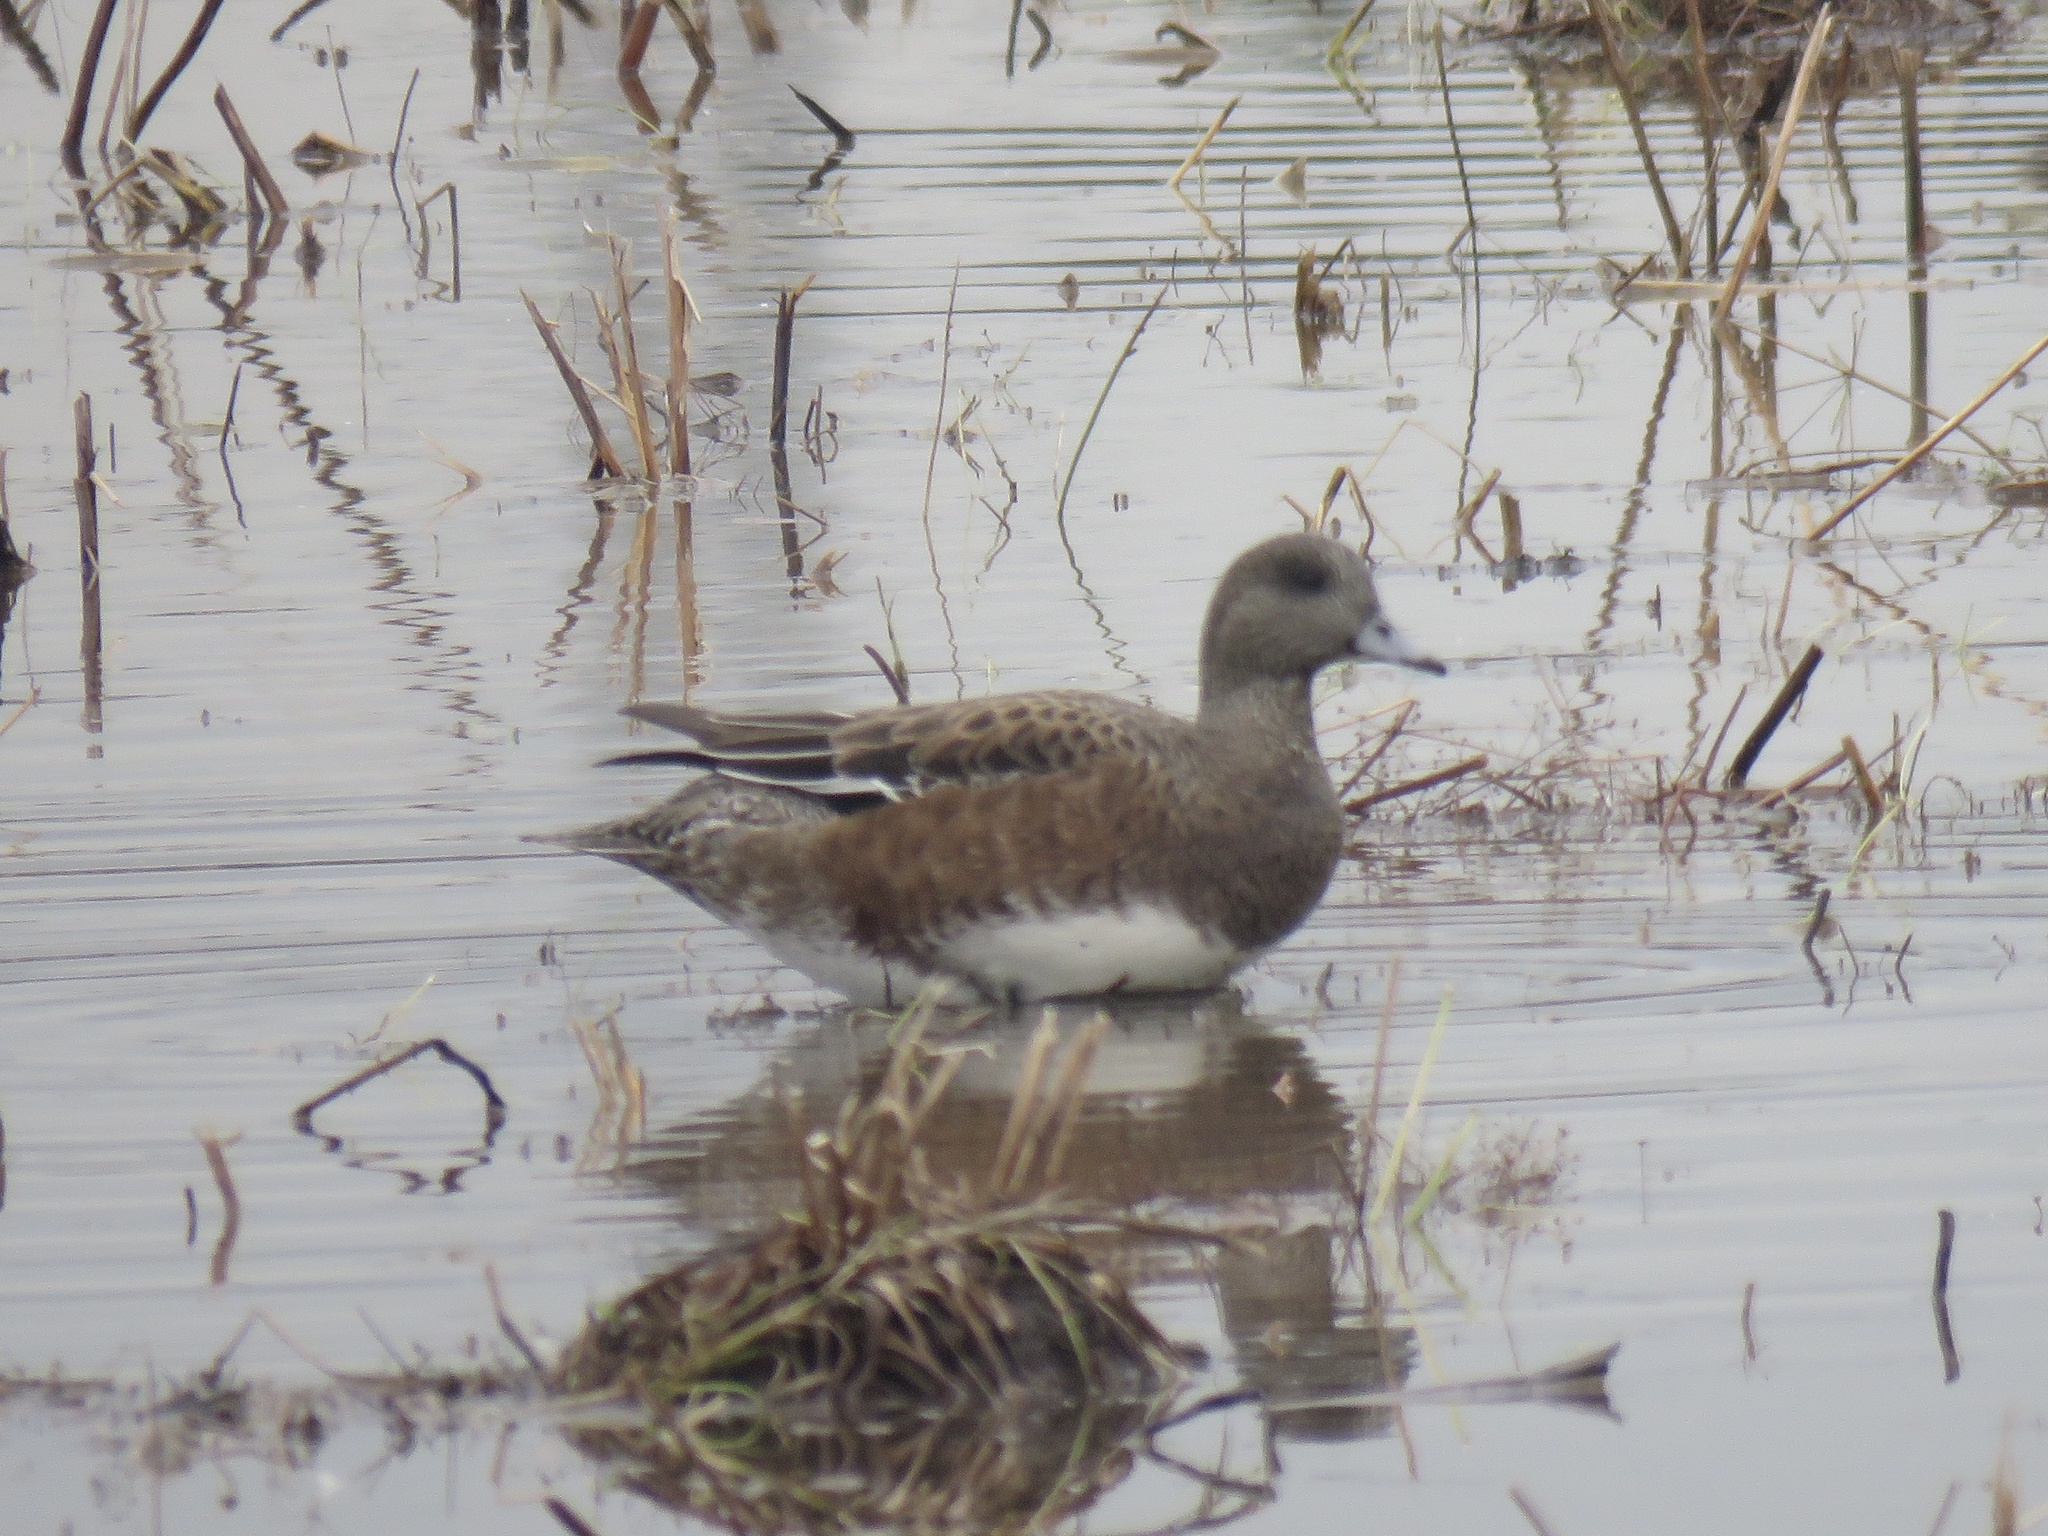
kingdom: Animalia
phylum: Chordata
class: Aves
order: Anseriformes
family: Anatidae
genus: Mareca
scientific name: Mareca americana
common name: American wigeon
